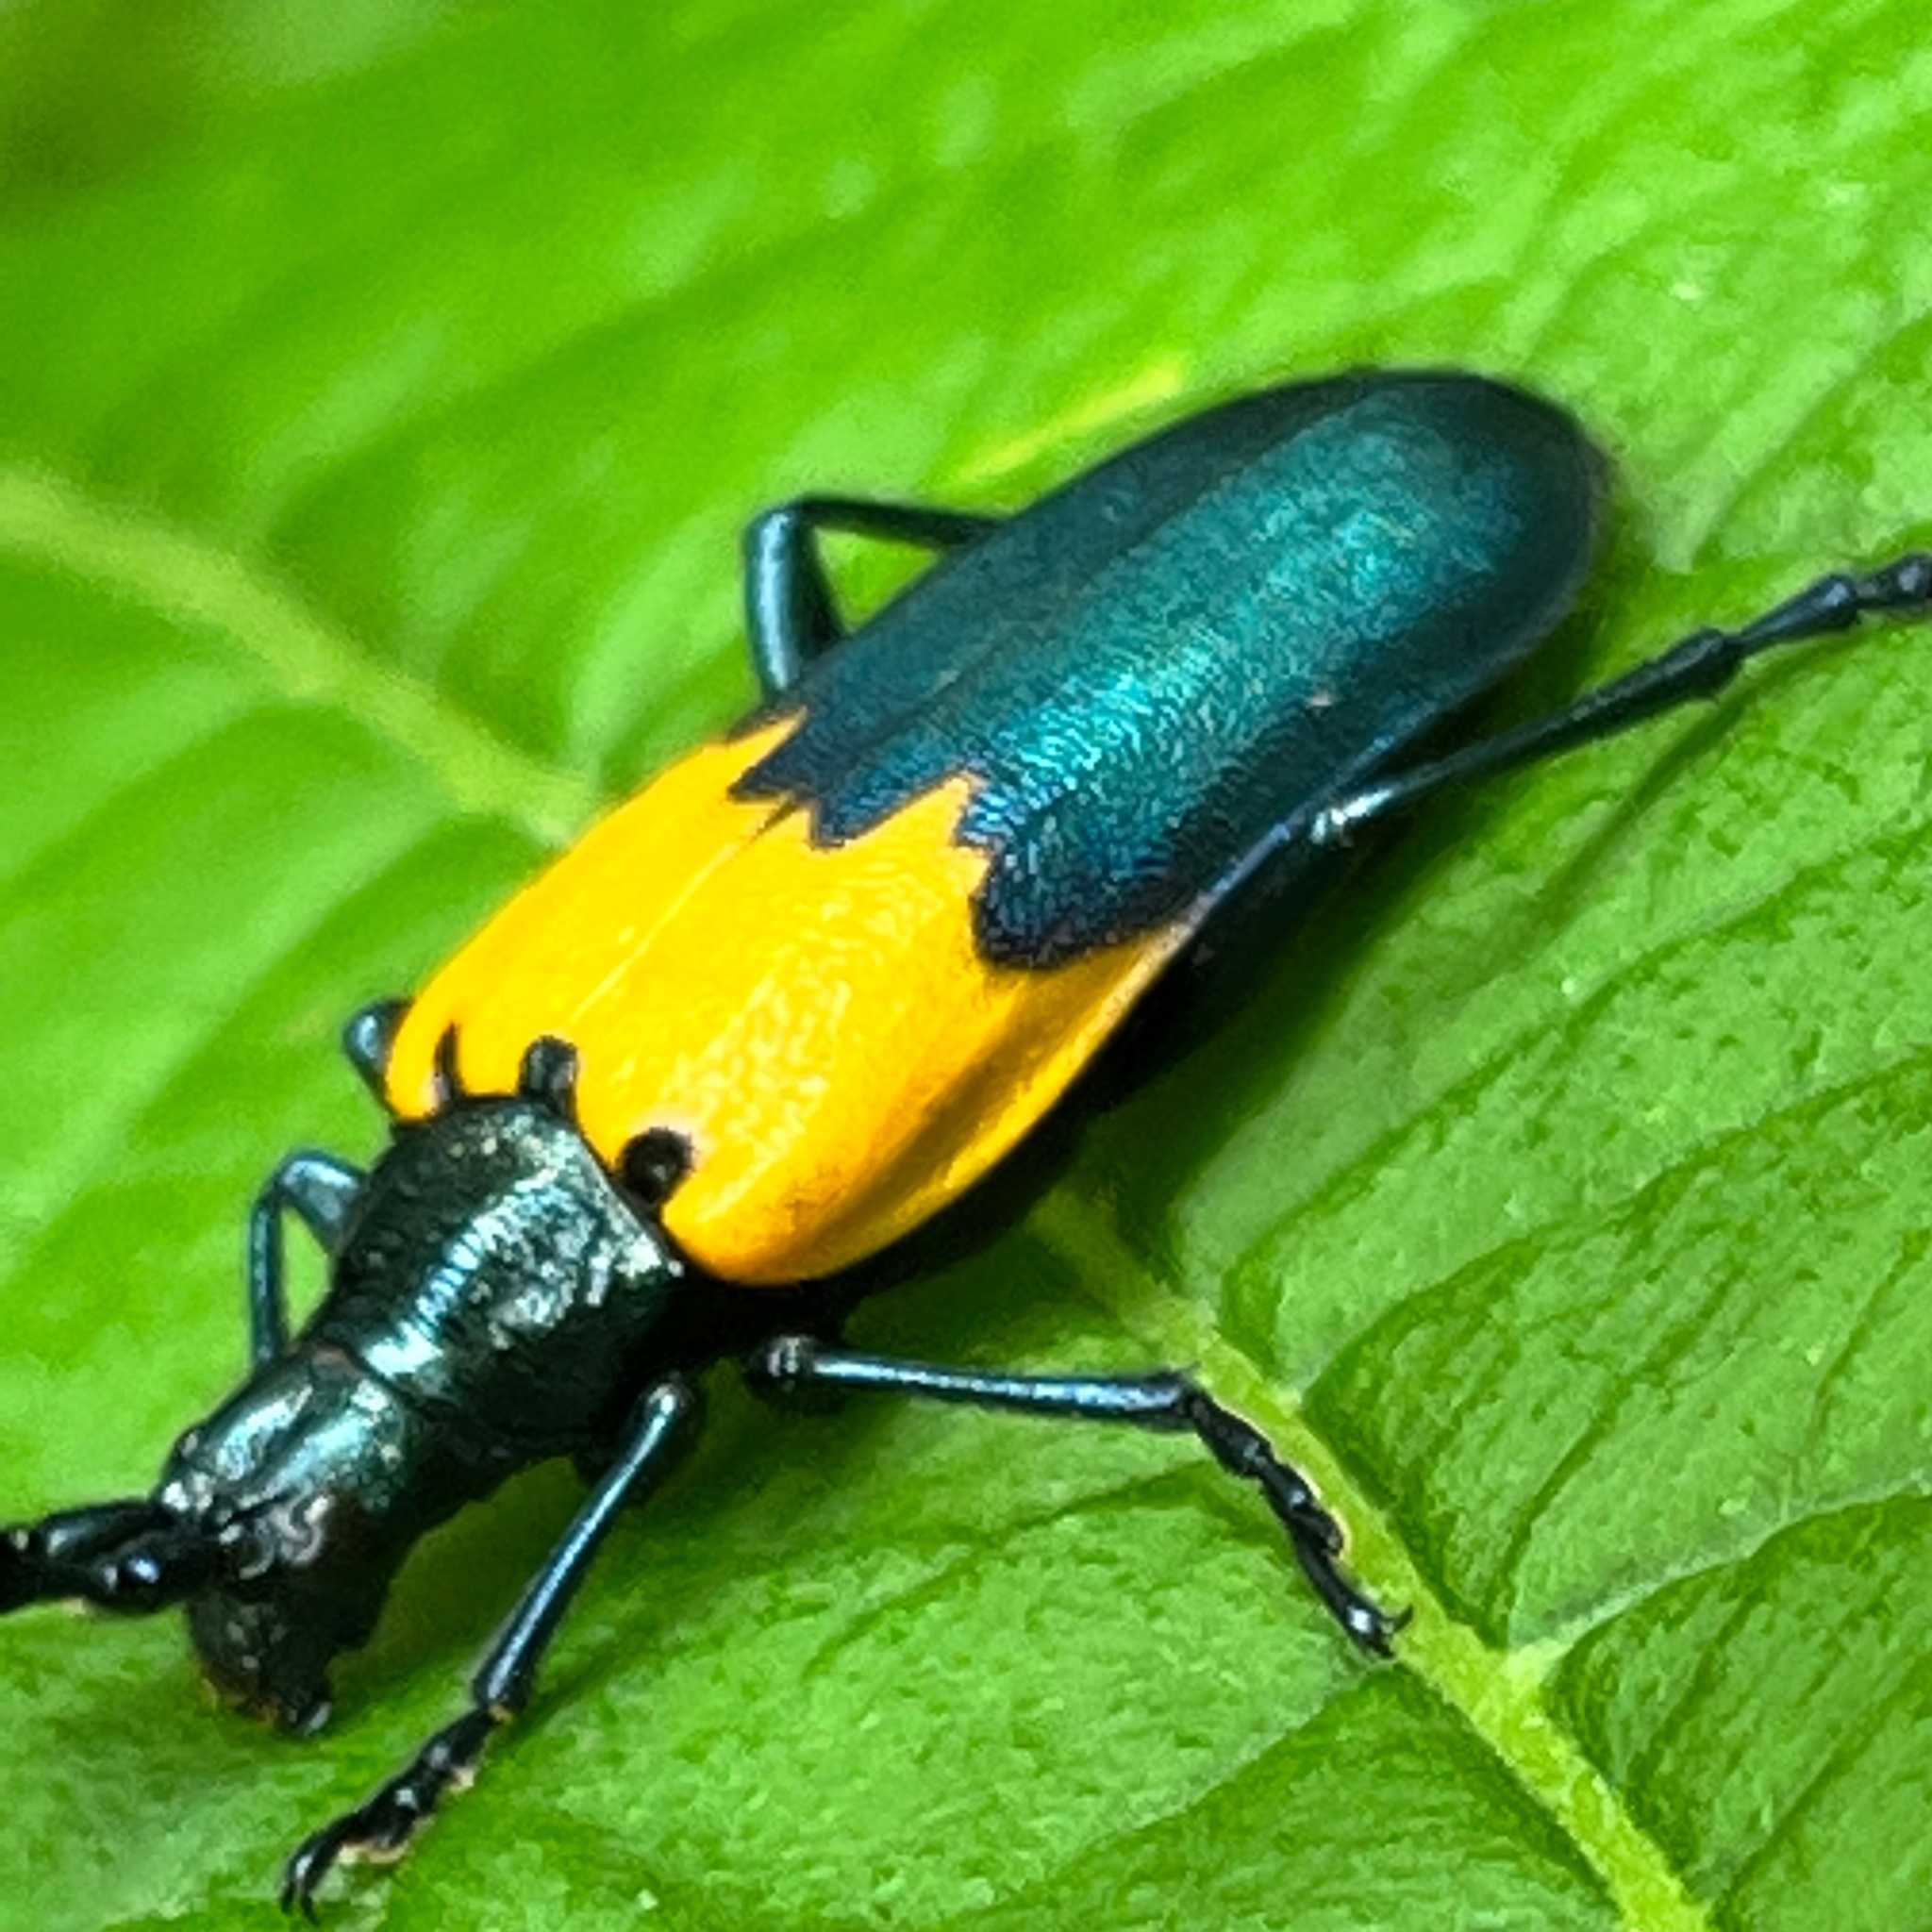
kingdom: Animalia
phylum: Arthropoda
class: Insecta
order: Coleoptera
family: Cerambycidae
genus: Desmocerus
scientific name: Desmocerus palliatus
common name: Eastern elderberry borer
